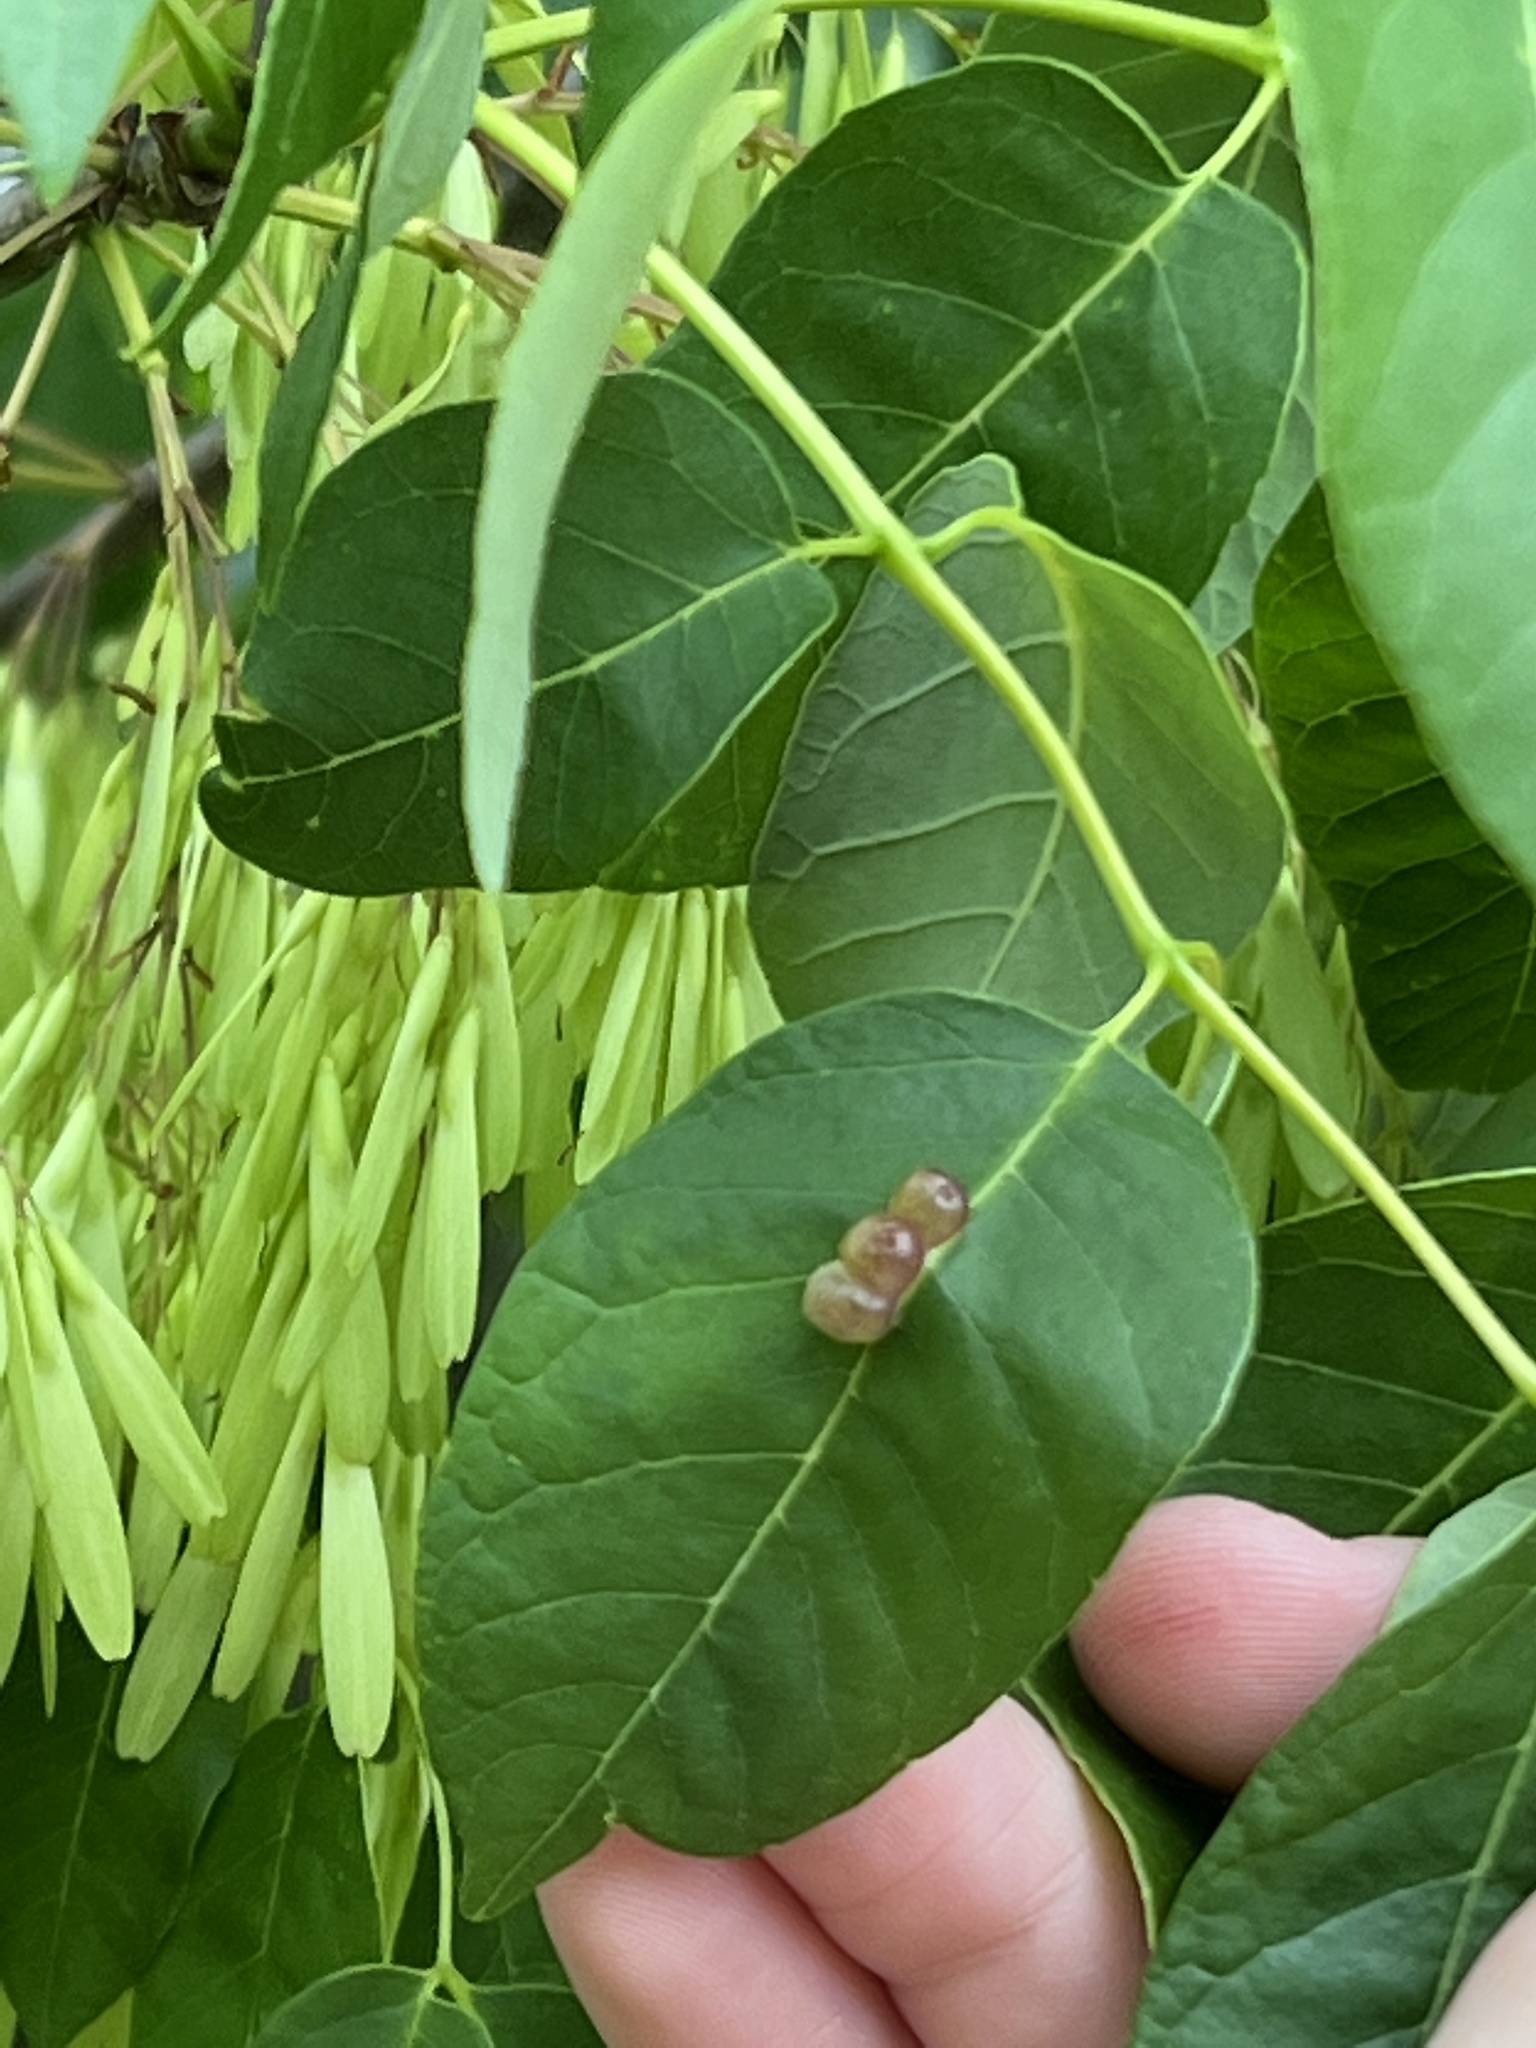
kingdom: Animalia
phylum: Arthropoda
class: Insecta
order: Diptera
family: Cecidomyiidae
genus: Dasineura
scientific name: Dasineura pellex
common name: Ash bullet gall midge
